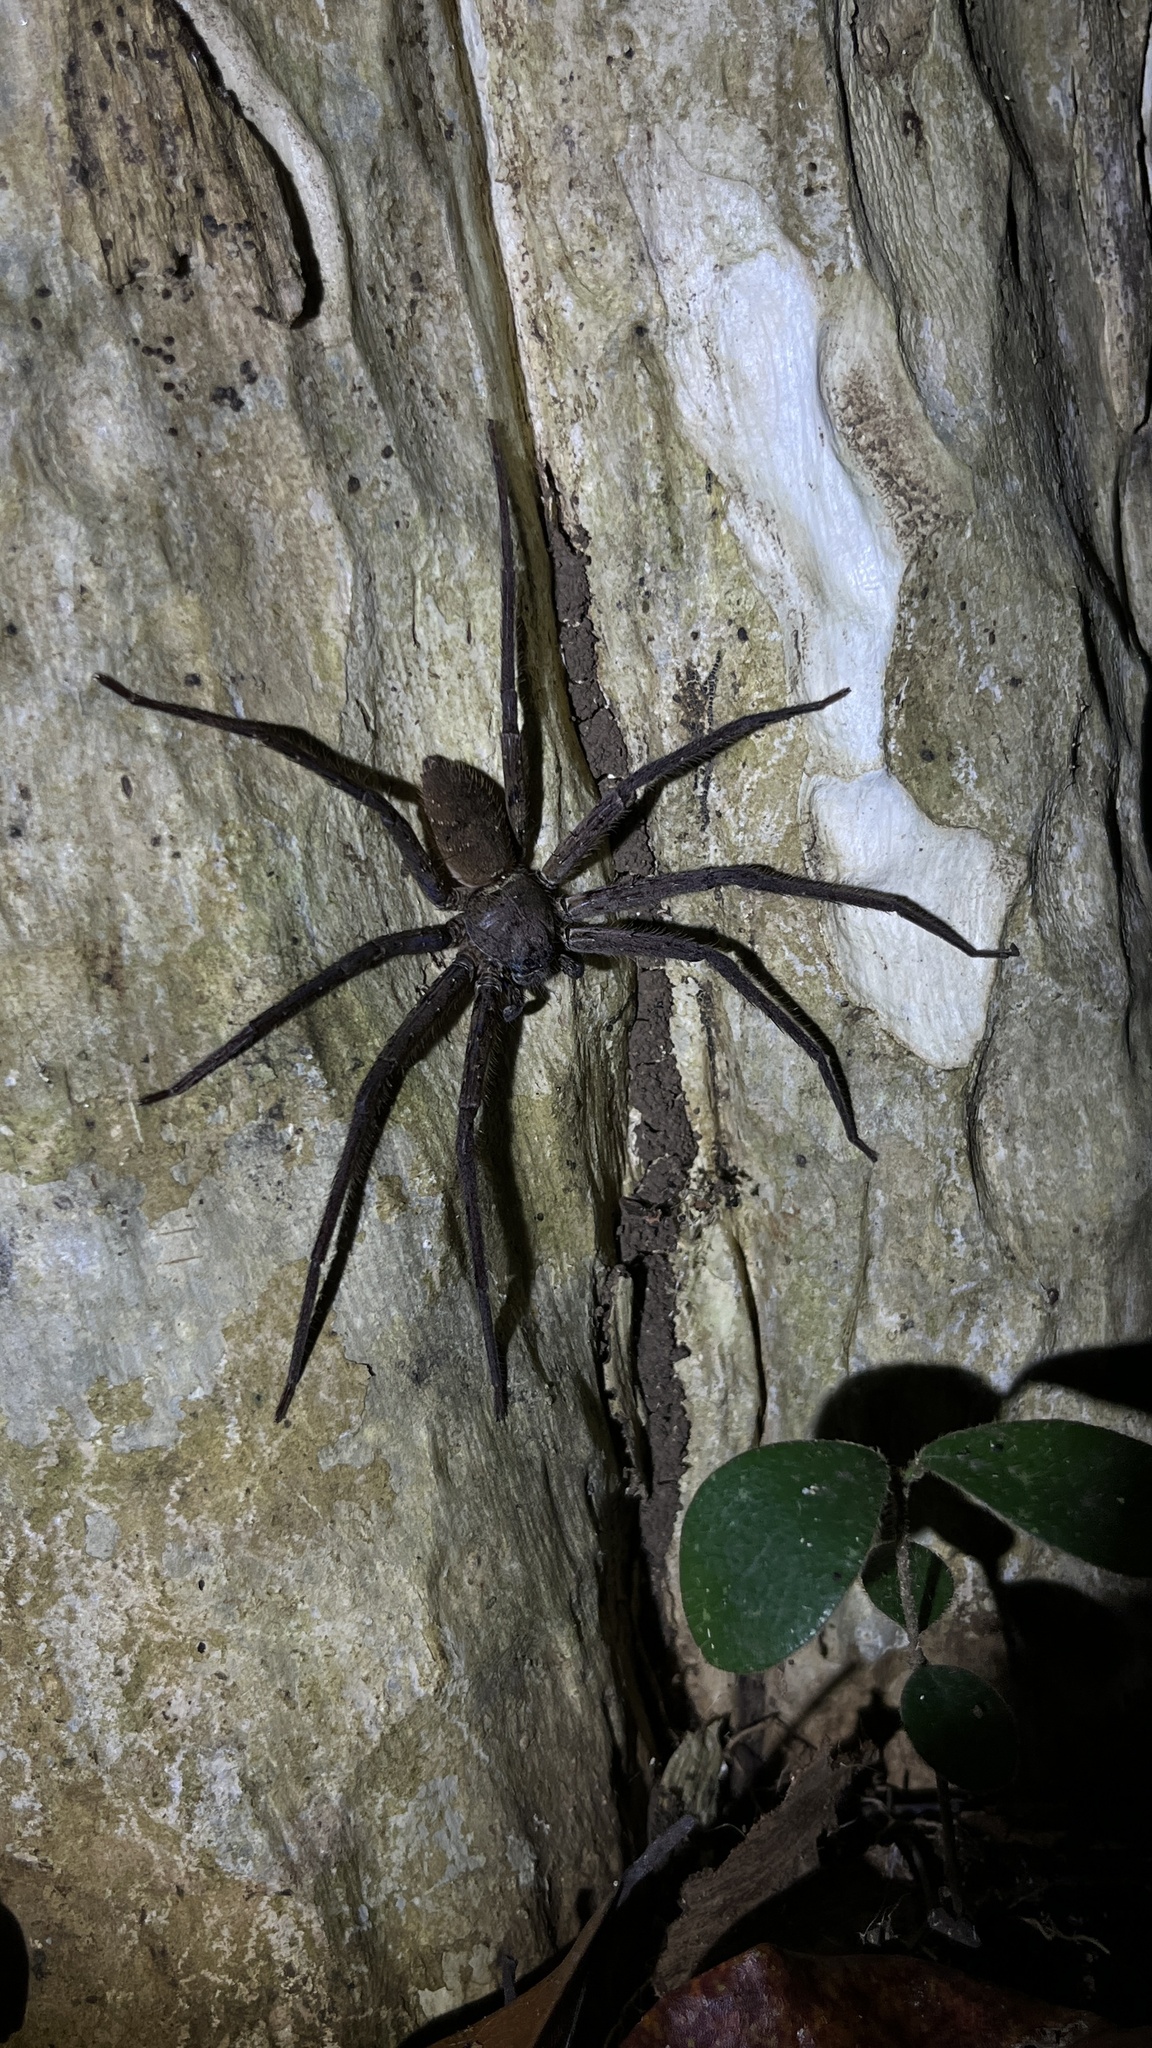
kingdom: Animalia
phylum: Arthropoda
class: Arachnida
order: Araneae
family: Sparassidae
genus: Heteropoda
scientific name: Heteropoda venatoria
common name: Huntsman spider
